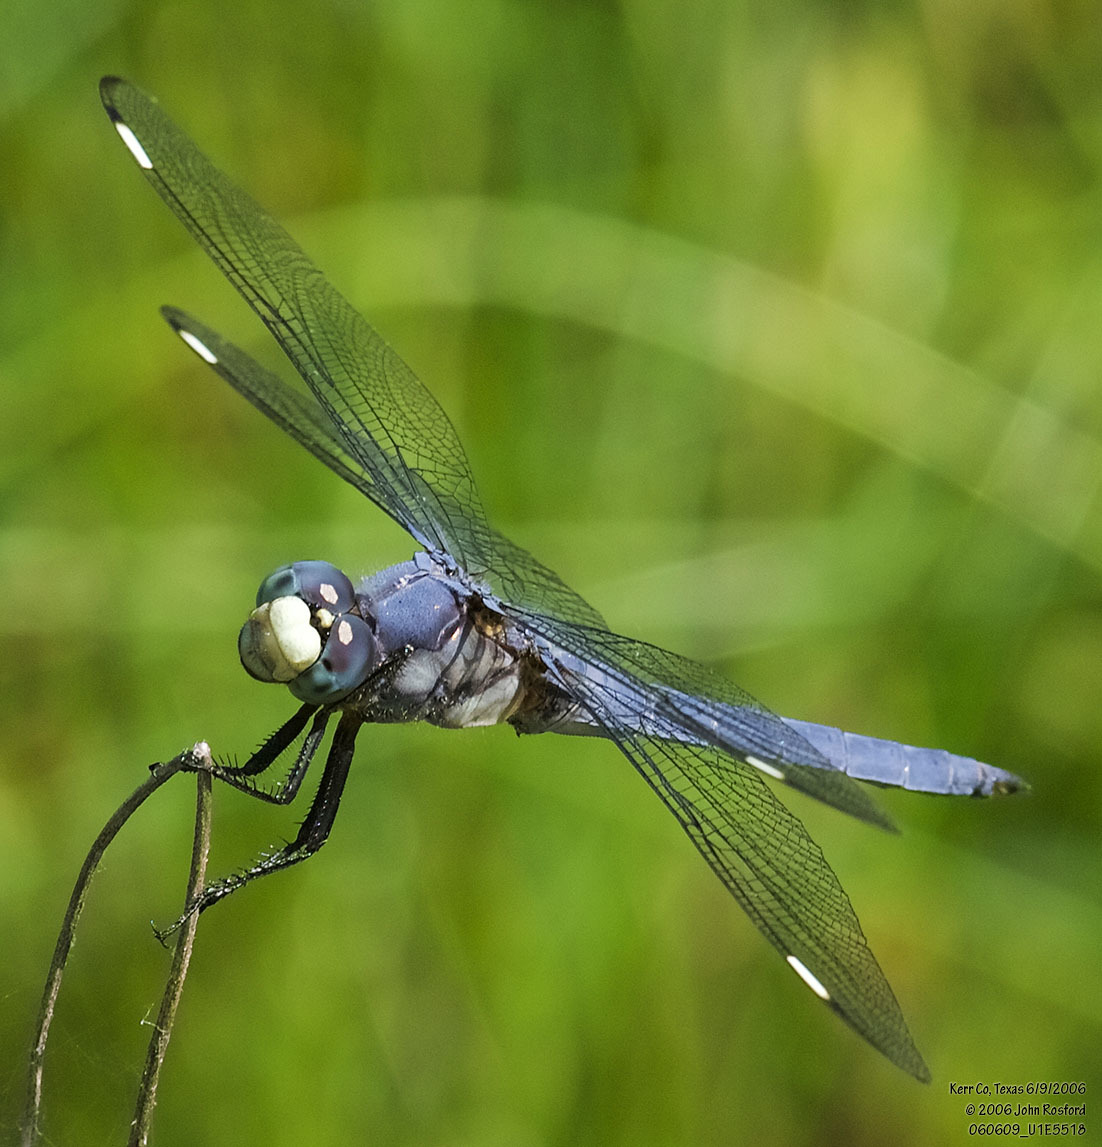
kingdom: Animalia
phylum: Arthropoda
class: Insecta
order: Odonata
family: Libellulidae
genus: Libellula
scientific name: Libellula comanche
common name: Comanche skimmer
